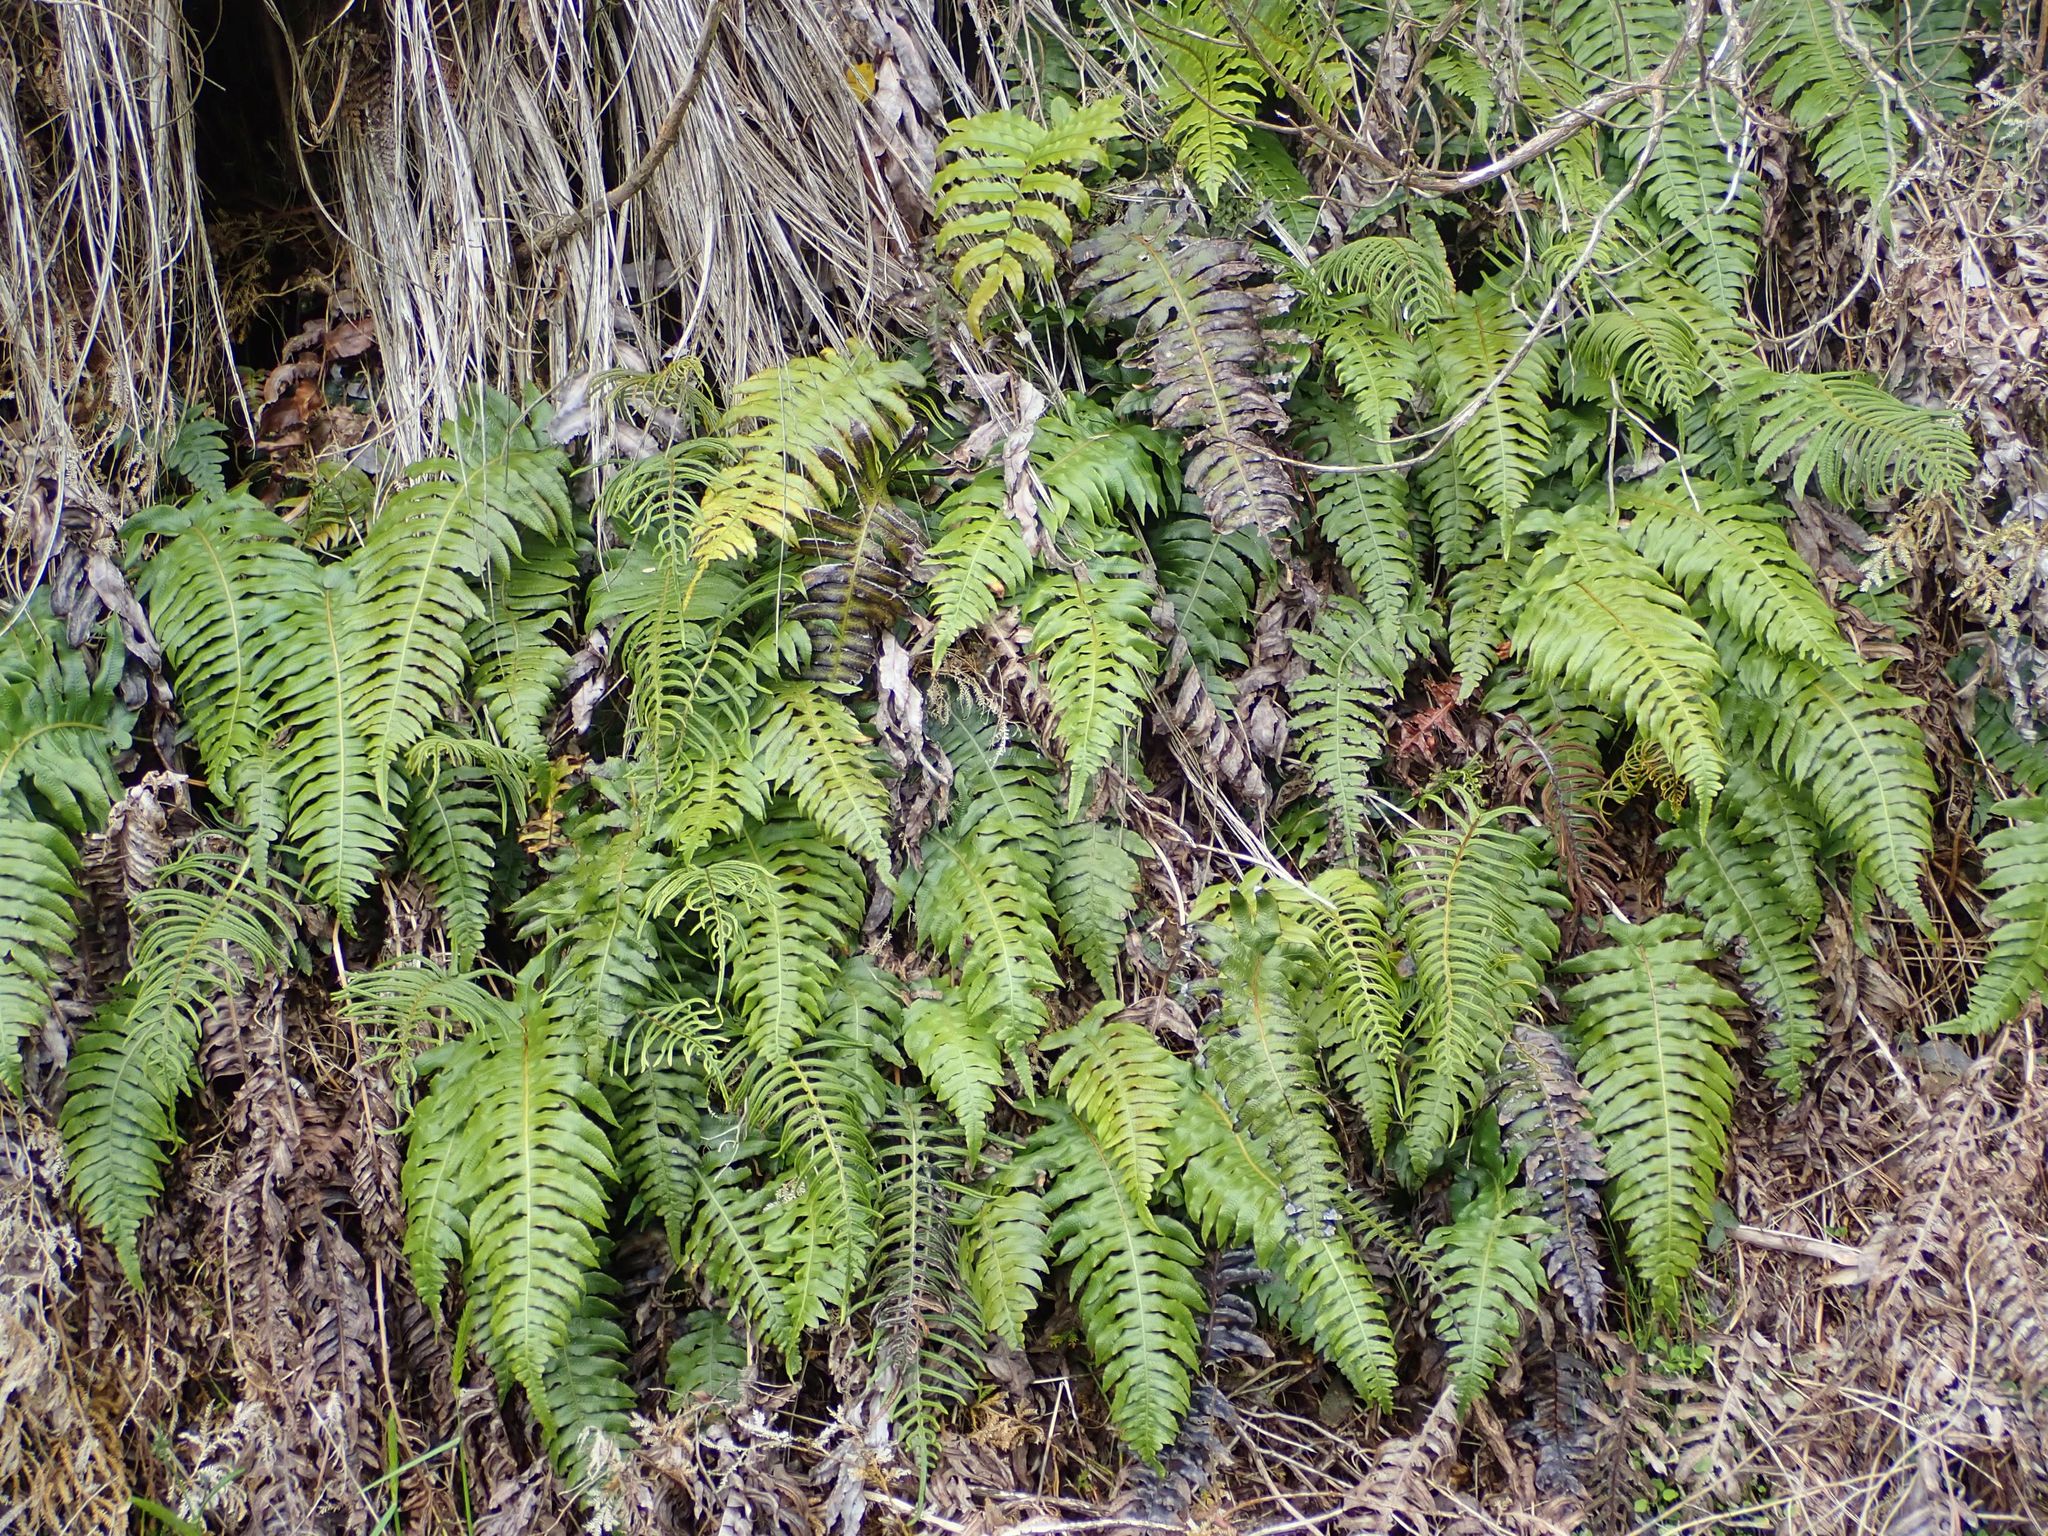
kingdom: Plantae
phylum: Tracheophyta
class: Polypodiopsida
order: Polypodiales
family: Blechnaceae
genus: Cranfillia
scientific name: Cranfillia deltoides
